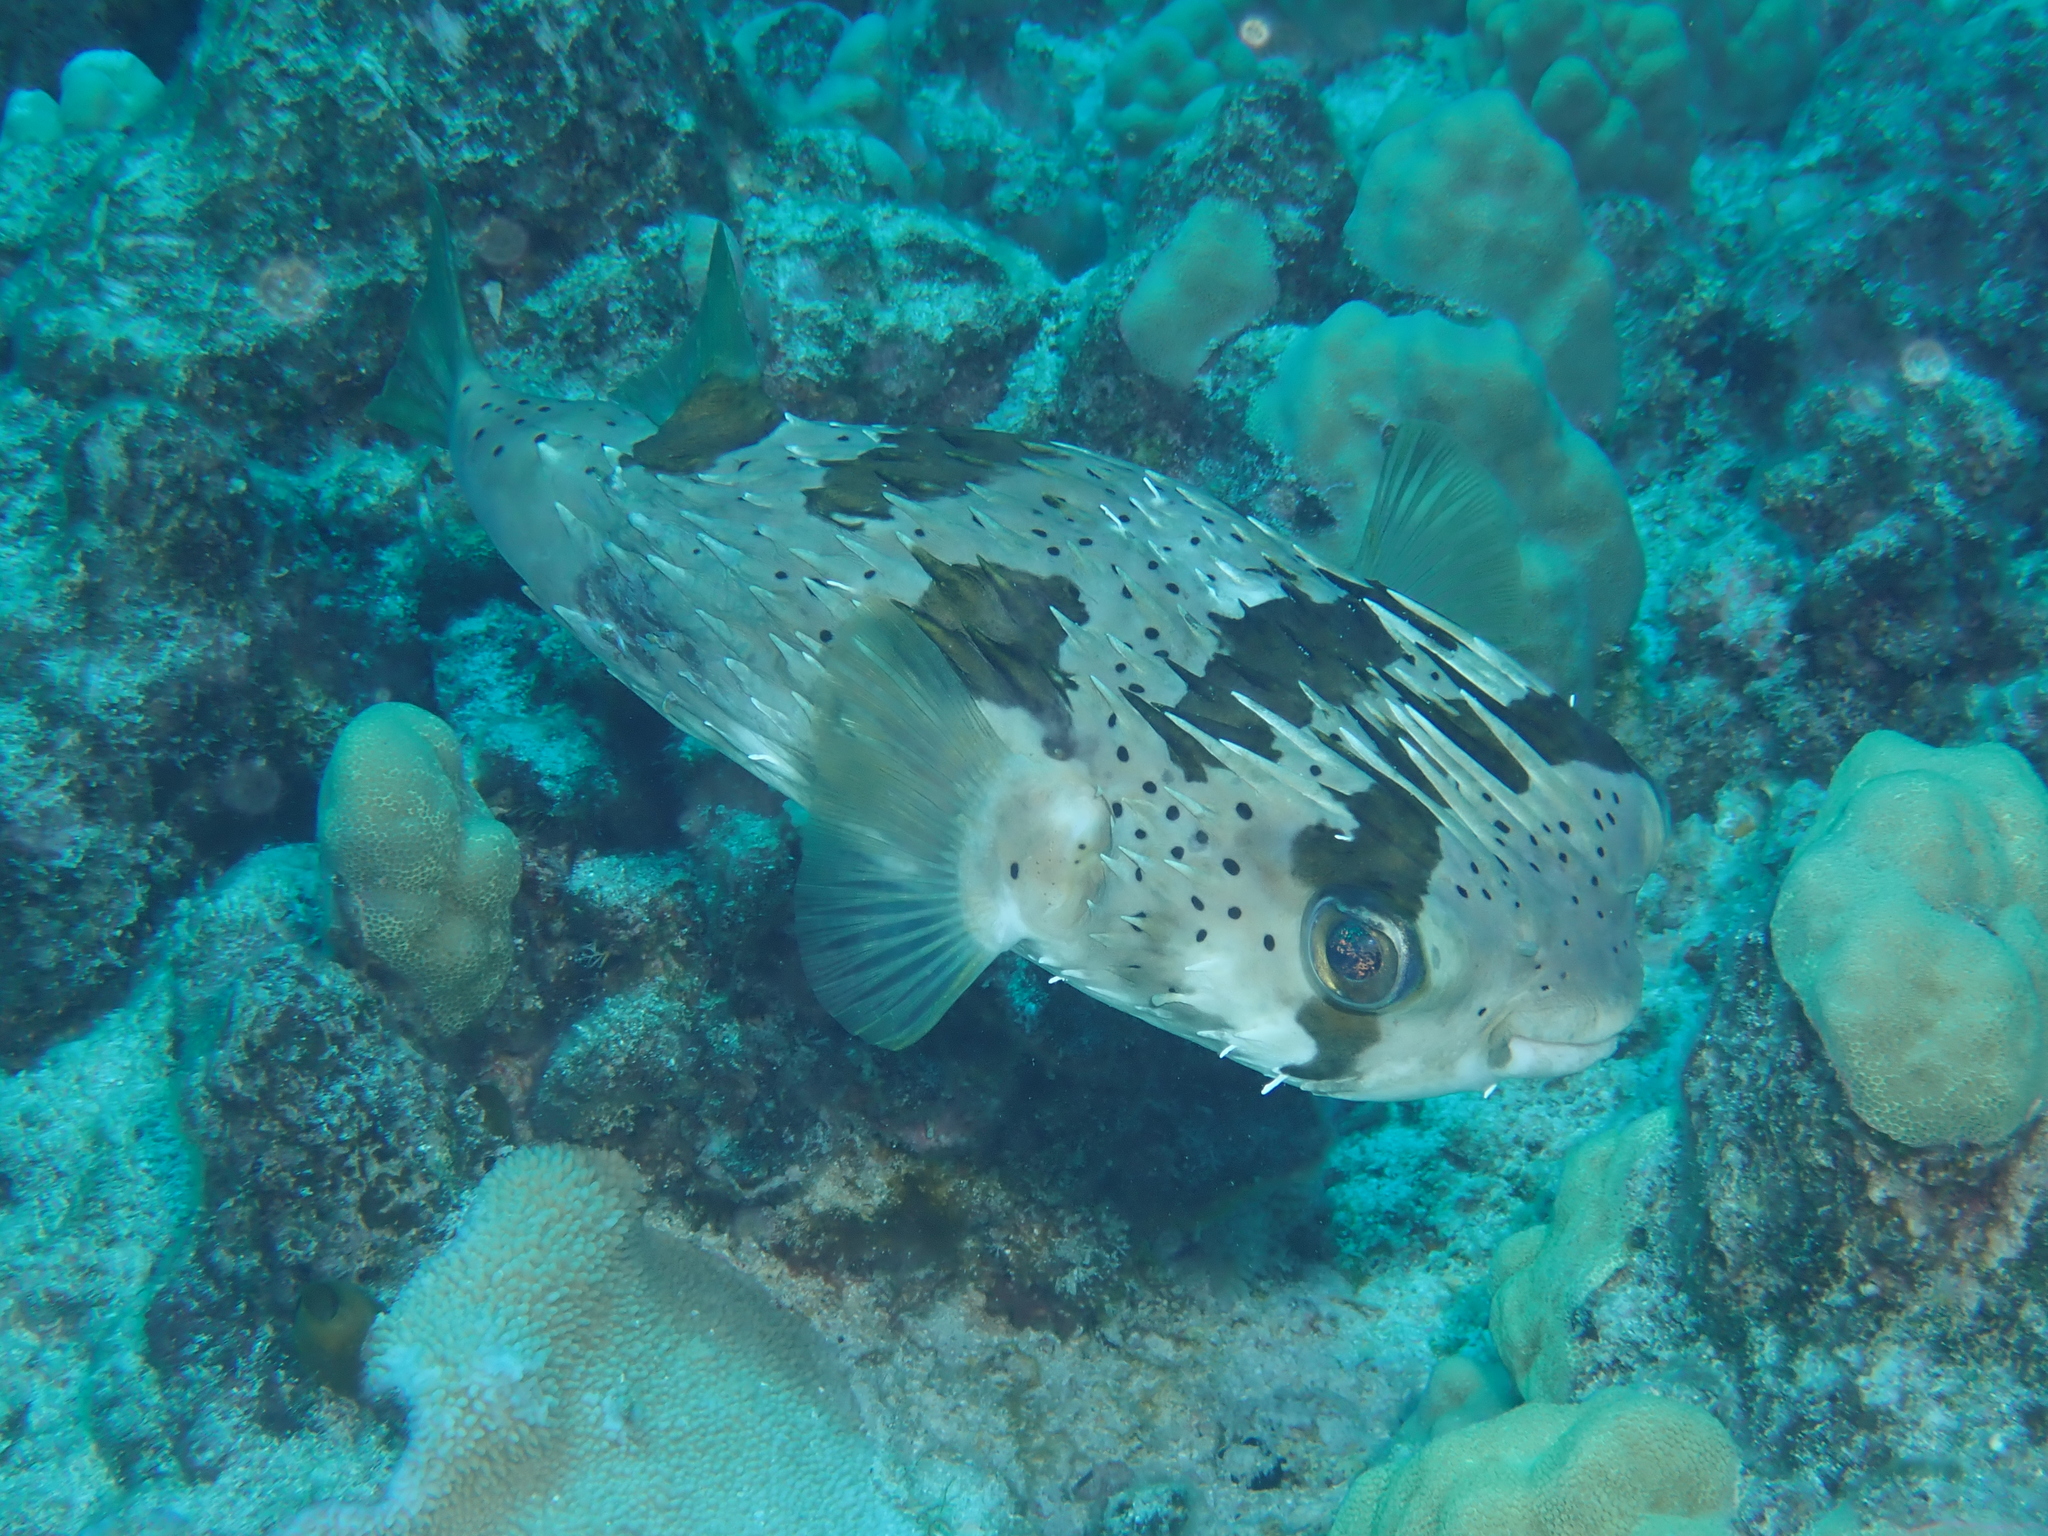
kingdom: Animalia
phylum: Chordata
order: Tetraodontiformes
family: Diodontidae
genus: Diodon
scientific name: Diodon holocanthus
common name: Balloonfish
